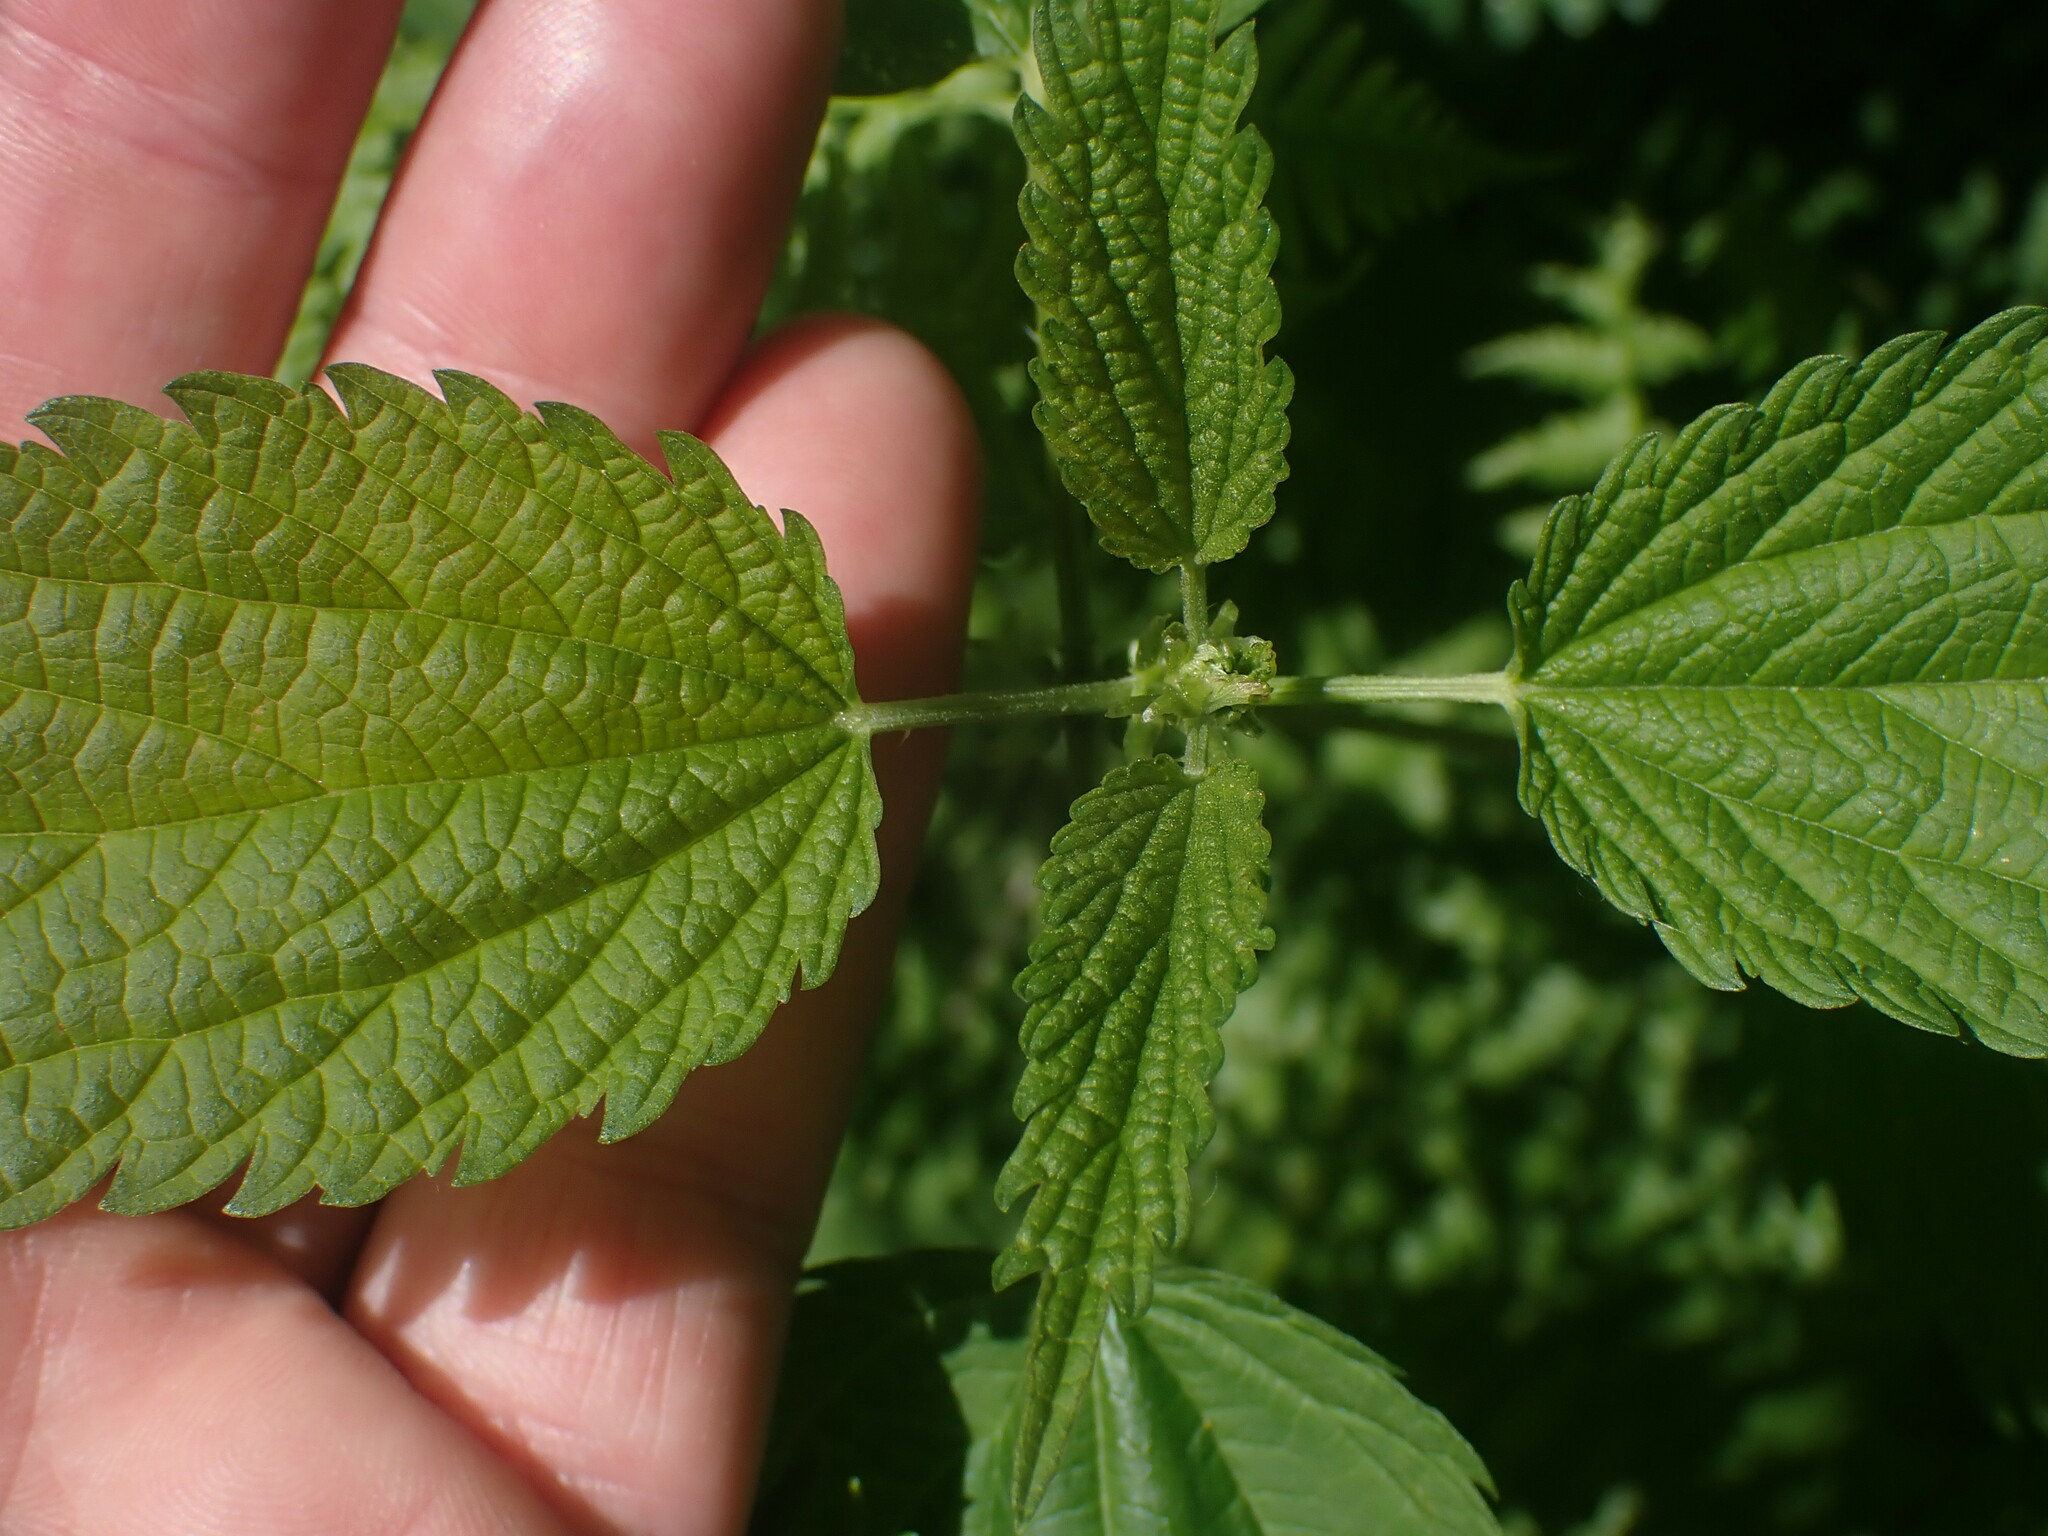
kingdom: Plantae
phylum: Tracheophyta
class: Magnoliopsida
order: Rosales
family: Urticaceae
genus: Urtica
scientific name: Urtica gracilis
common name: Slender stinging nettle
